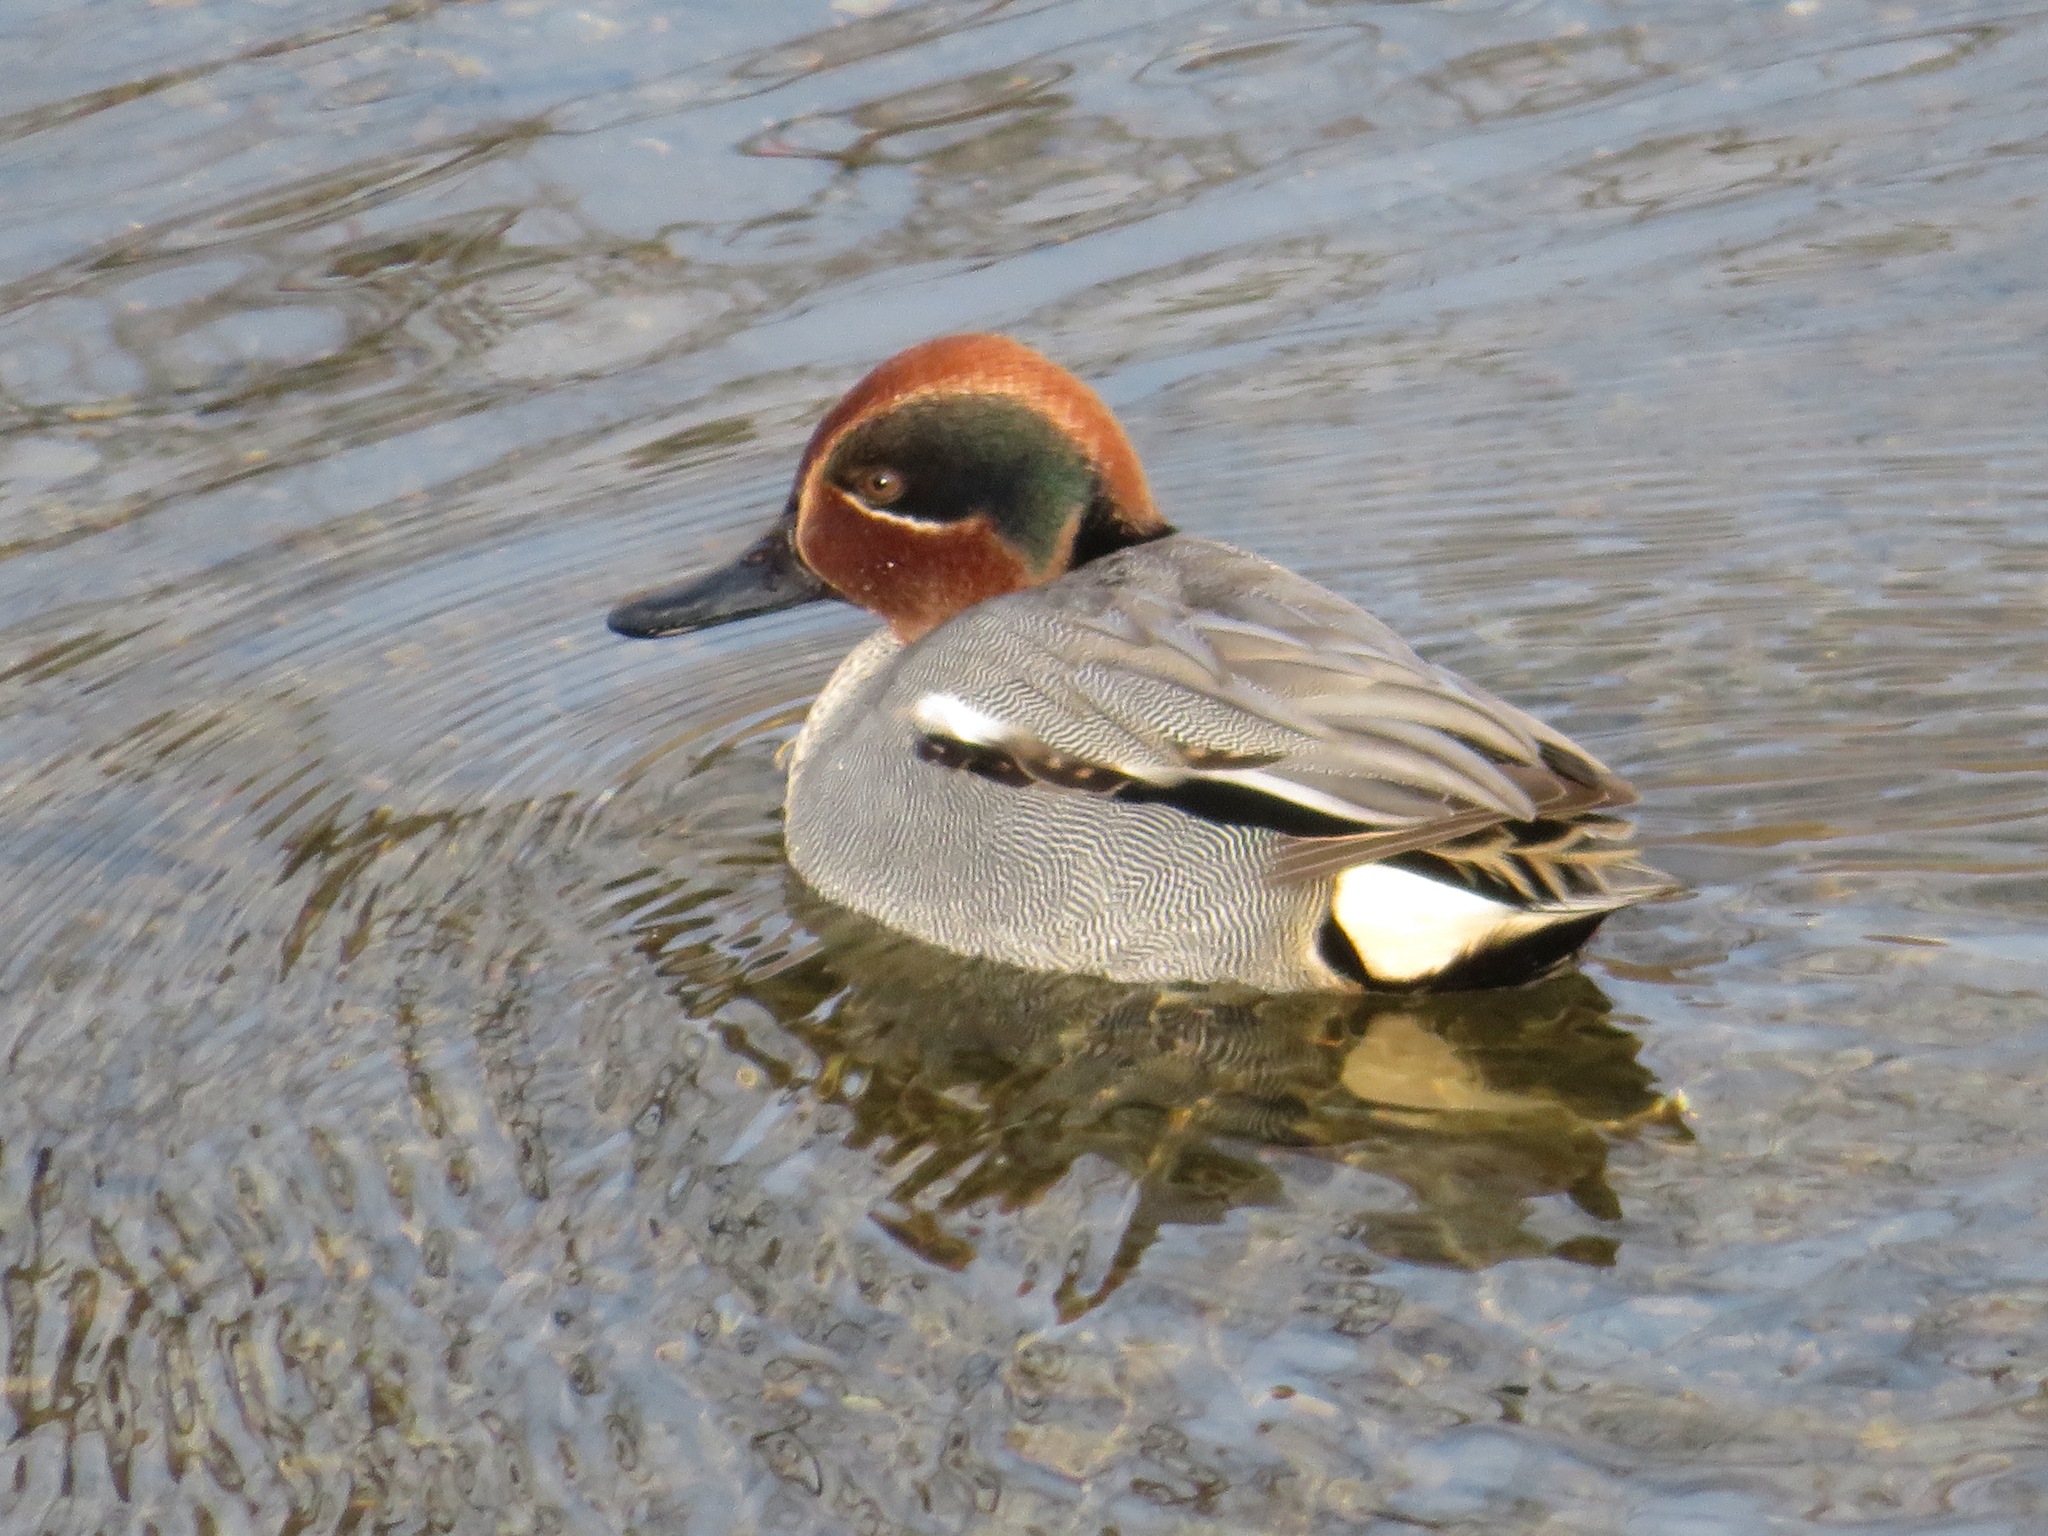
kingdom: Animalia
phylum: Chordata
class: Aves
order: Anseriformes
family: Anatidae
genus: Anas
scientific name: Anas crecca
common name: Eurasian teal
